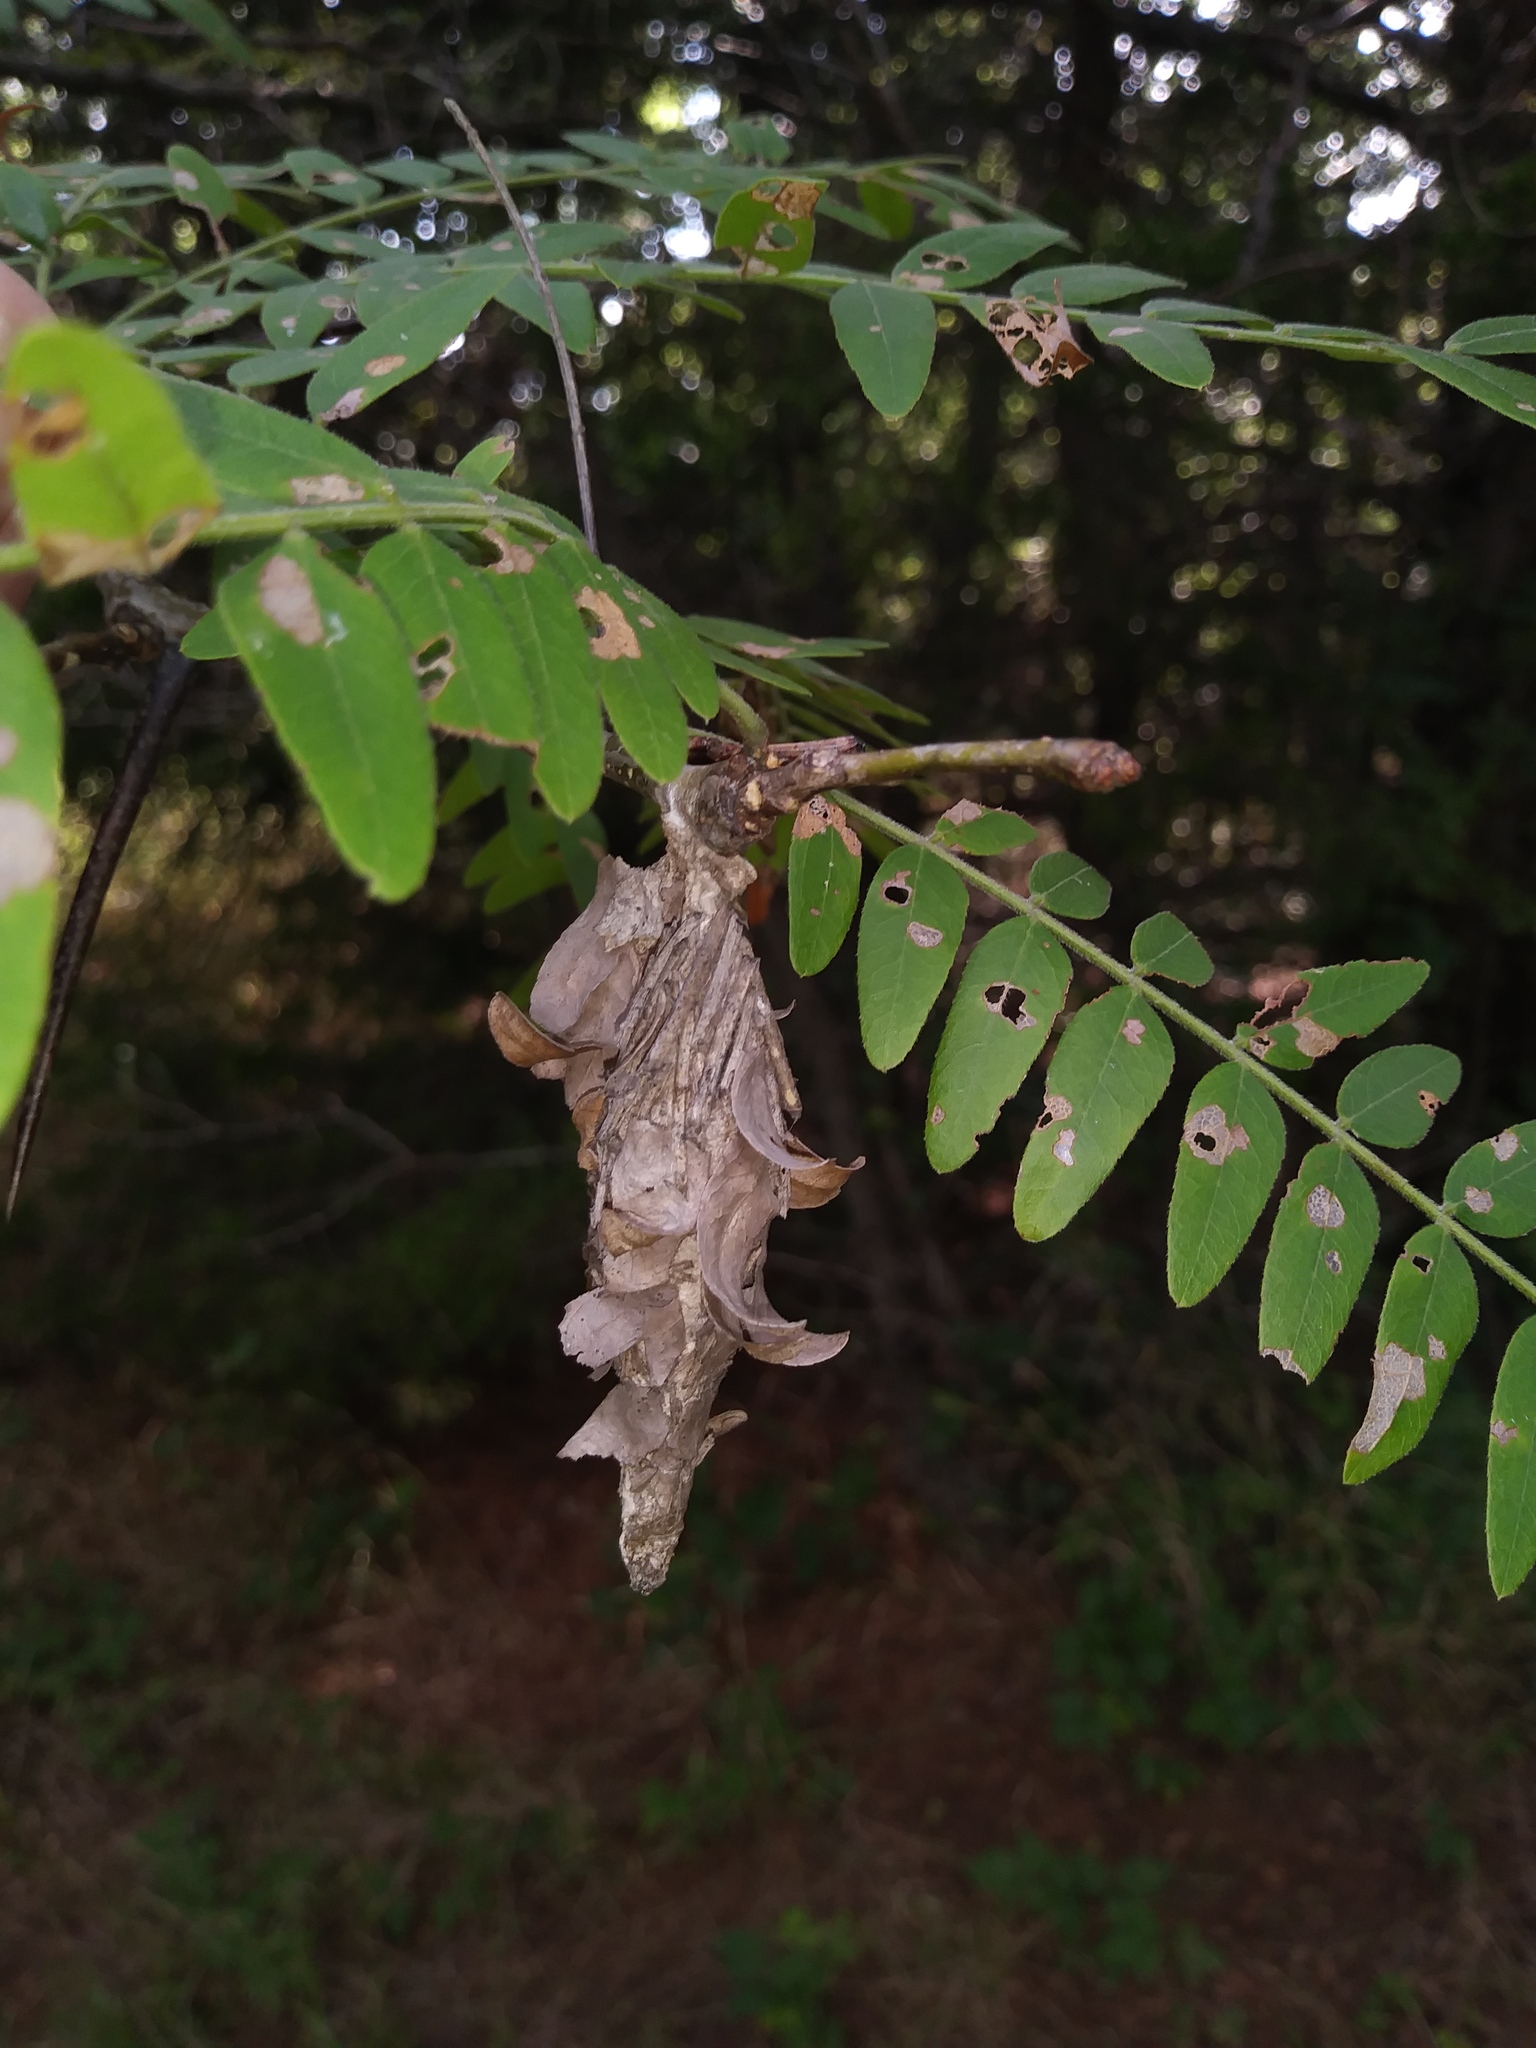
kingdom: Animalia
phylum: Arthropoda
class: Insecta
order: Lepidoptera
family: Psychidae
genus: Thyridopteryx
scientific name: Thyridopteryx ephemeraeformis
